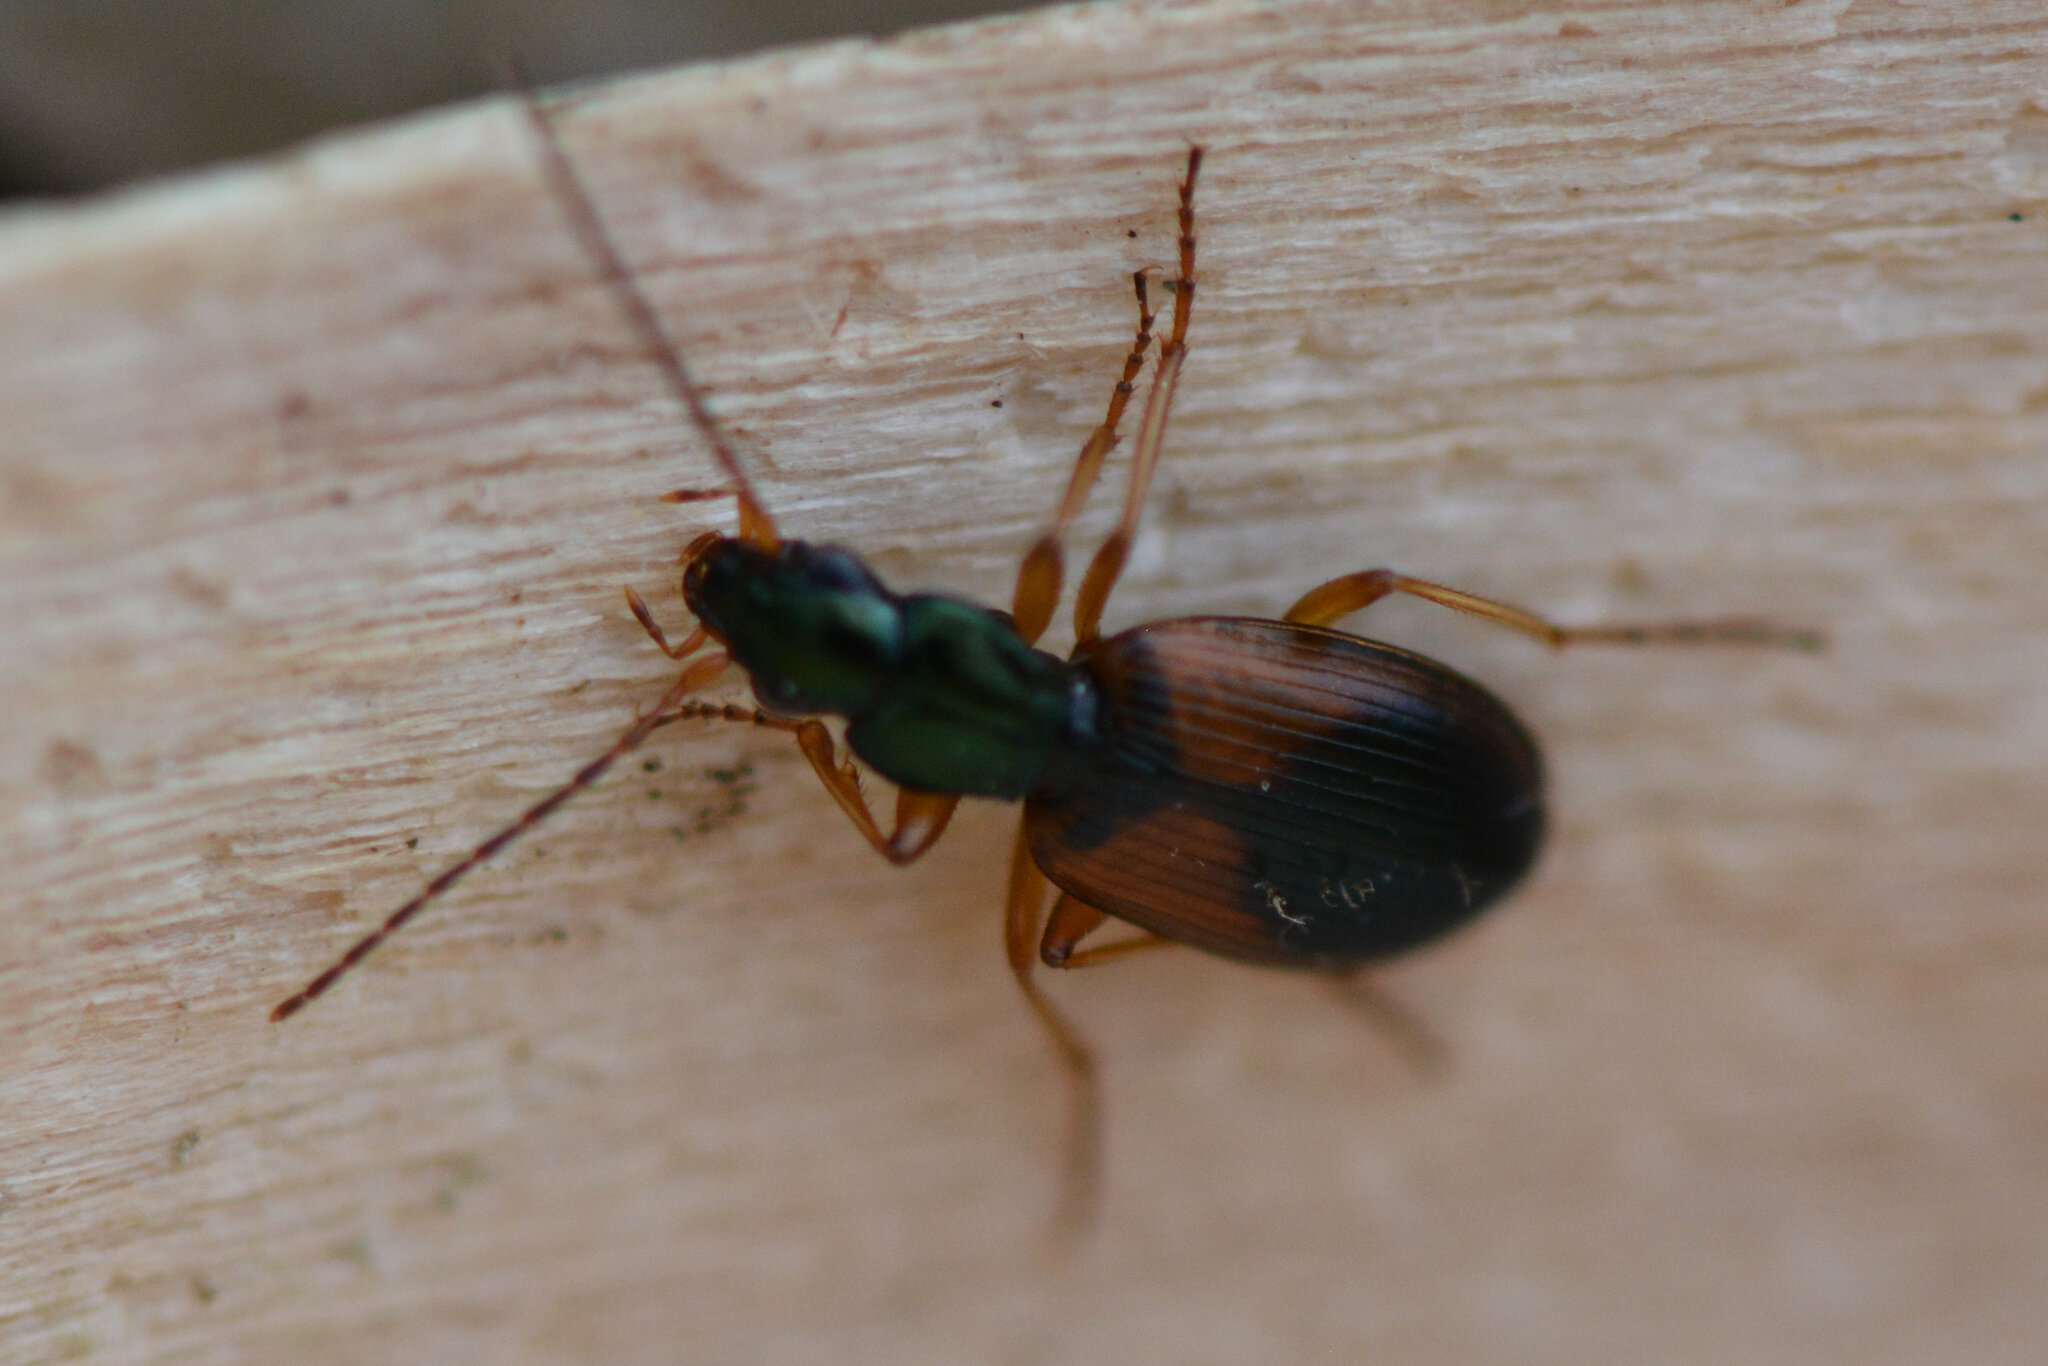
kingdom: Animalia
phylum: Arthropoda
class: Insecta
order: Coleoptera
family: Carabidae
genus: Anchomenus
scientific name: Anchomenus dorsalis
